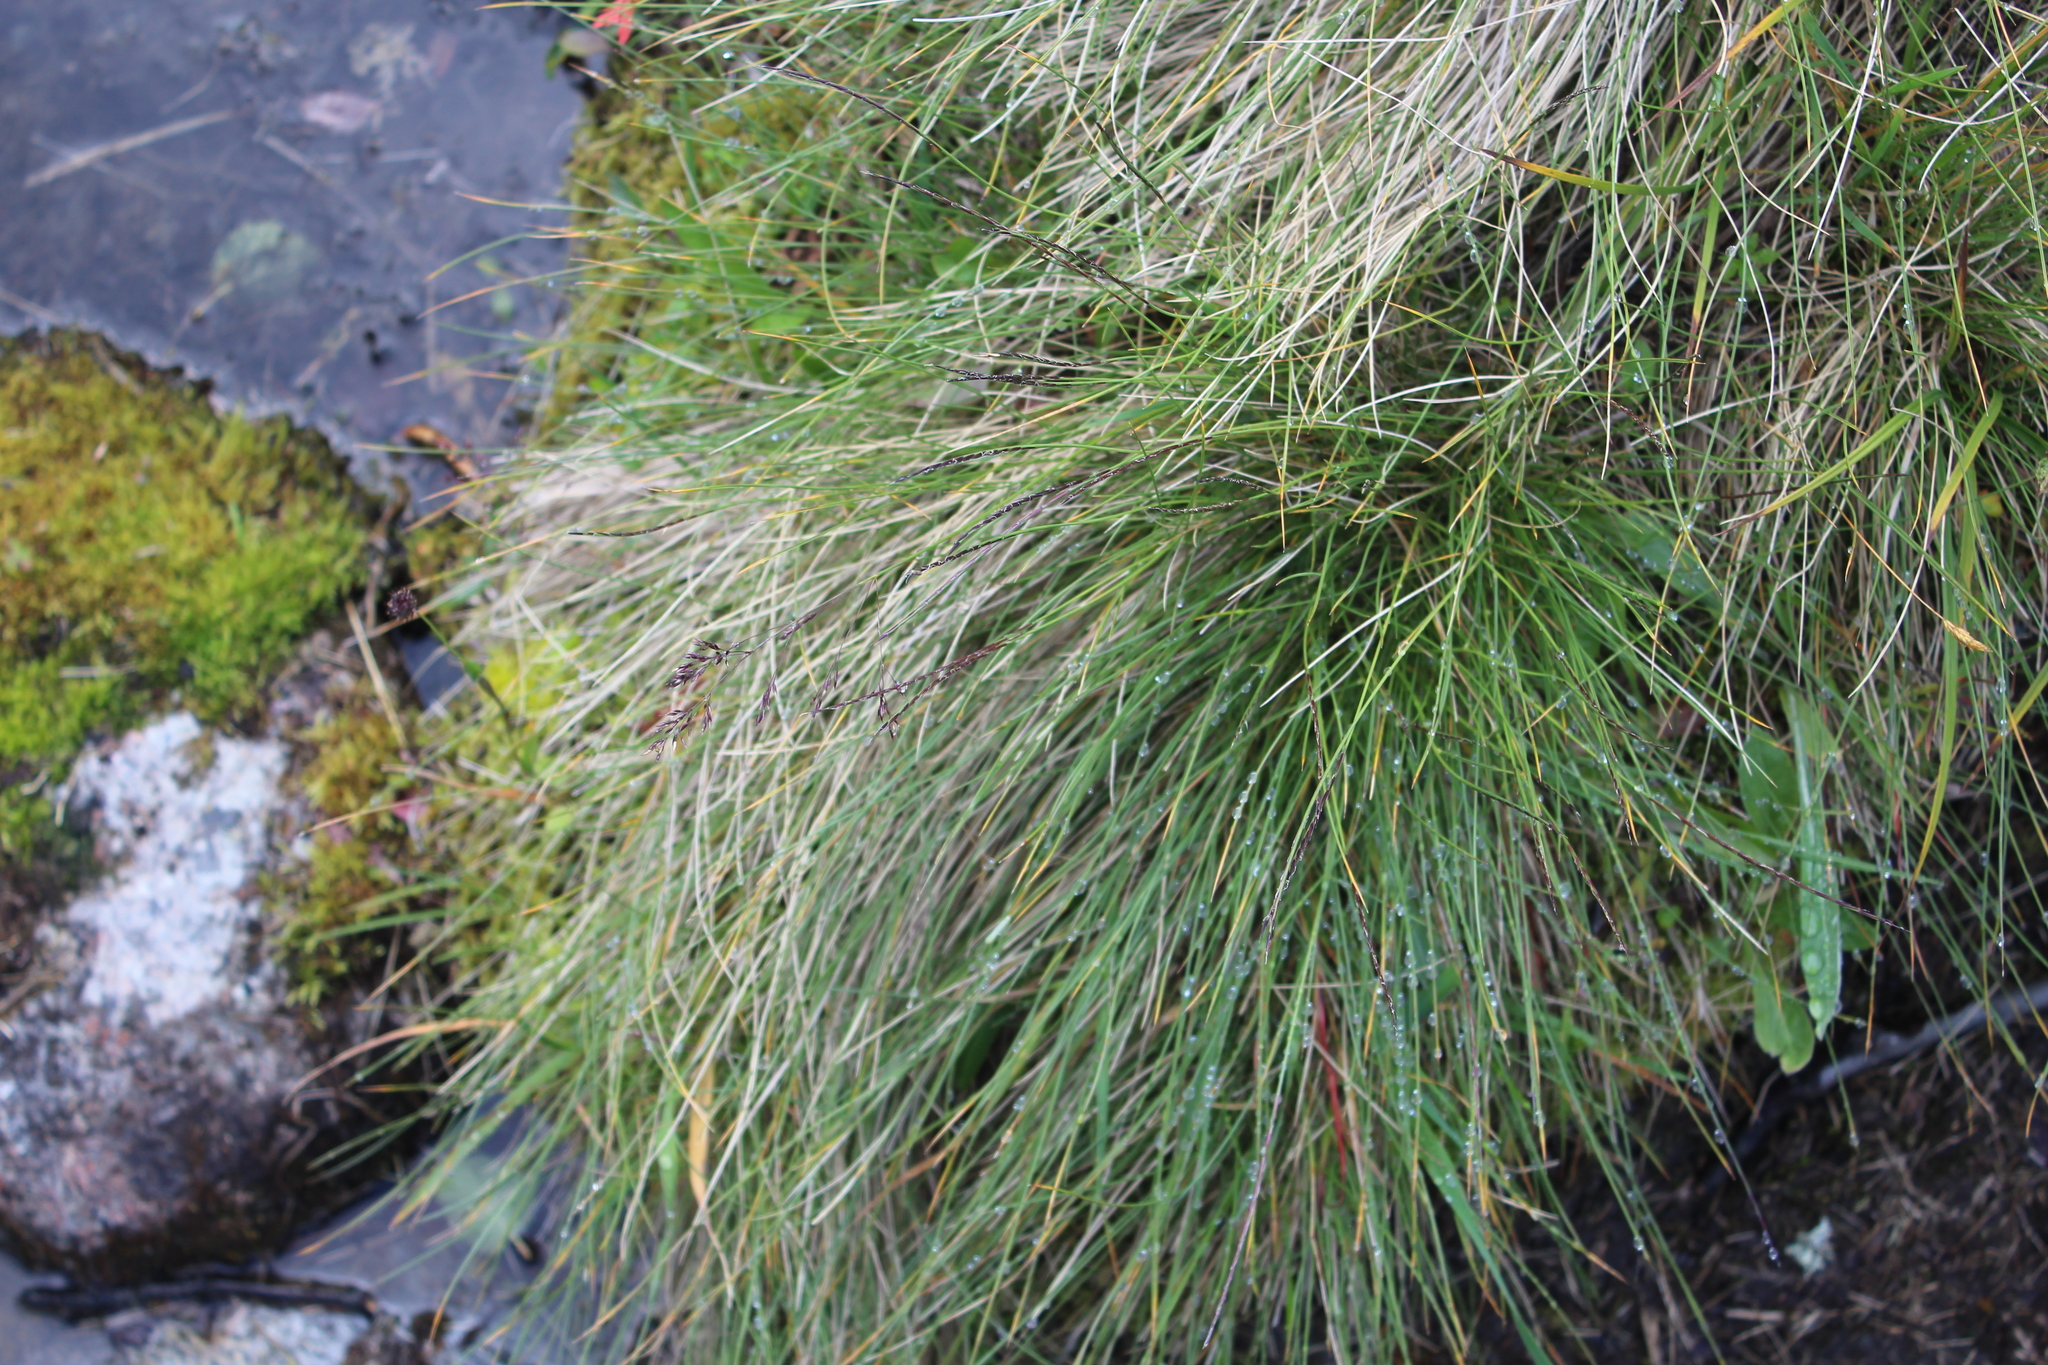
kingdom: Plantae
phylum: Tracheophyta
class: Liliopsida
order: Poales
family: Poaceae
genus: Nardus
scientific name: Nardus stricta
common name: Mat-grass
